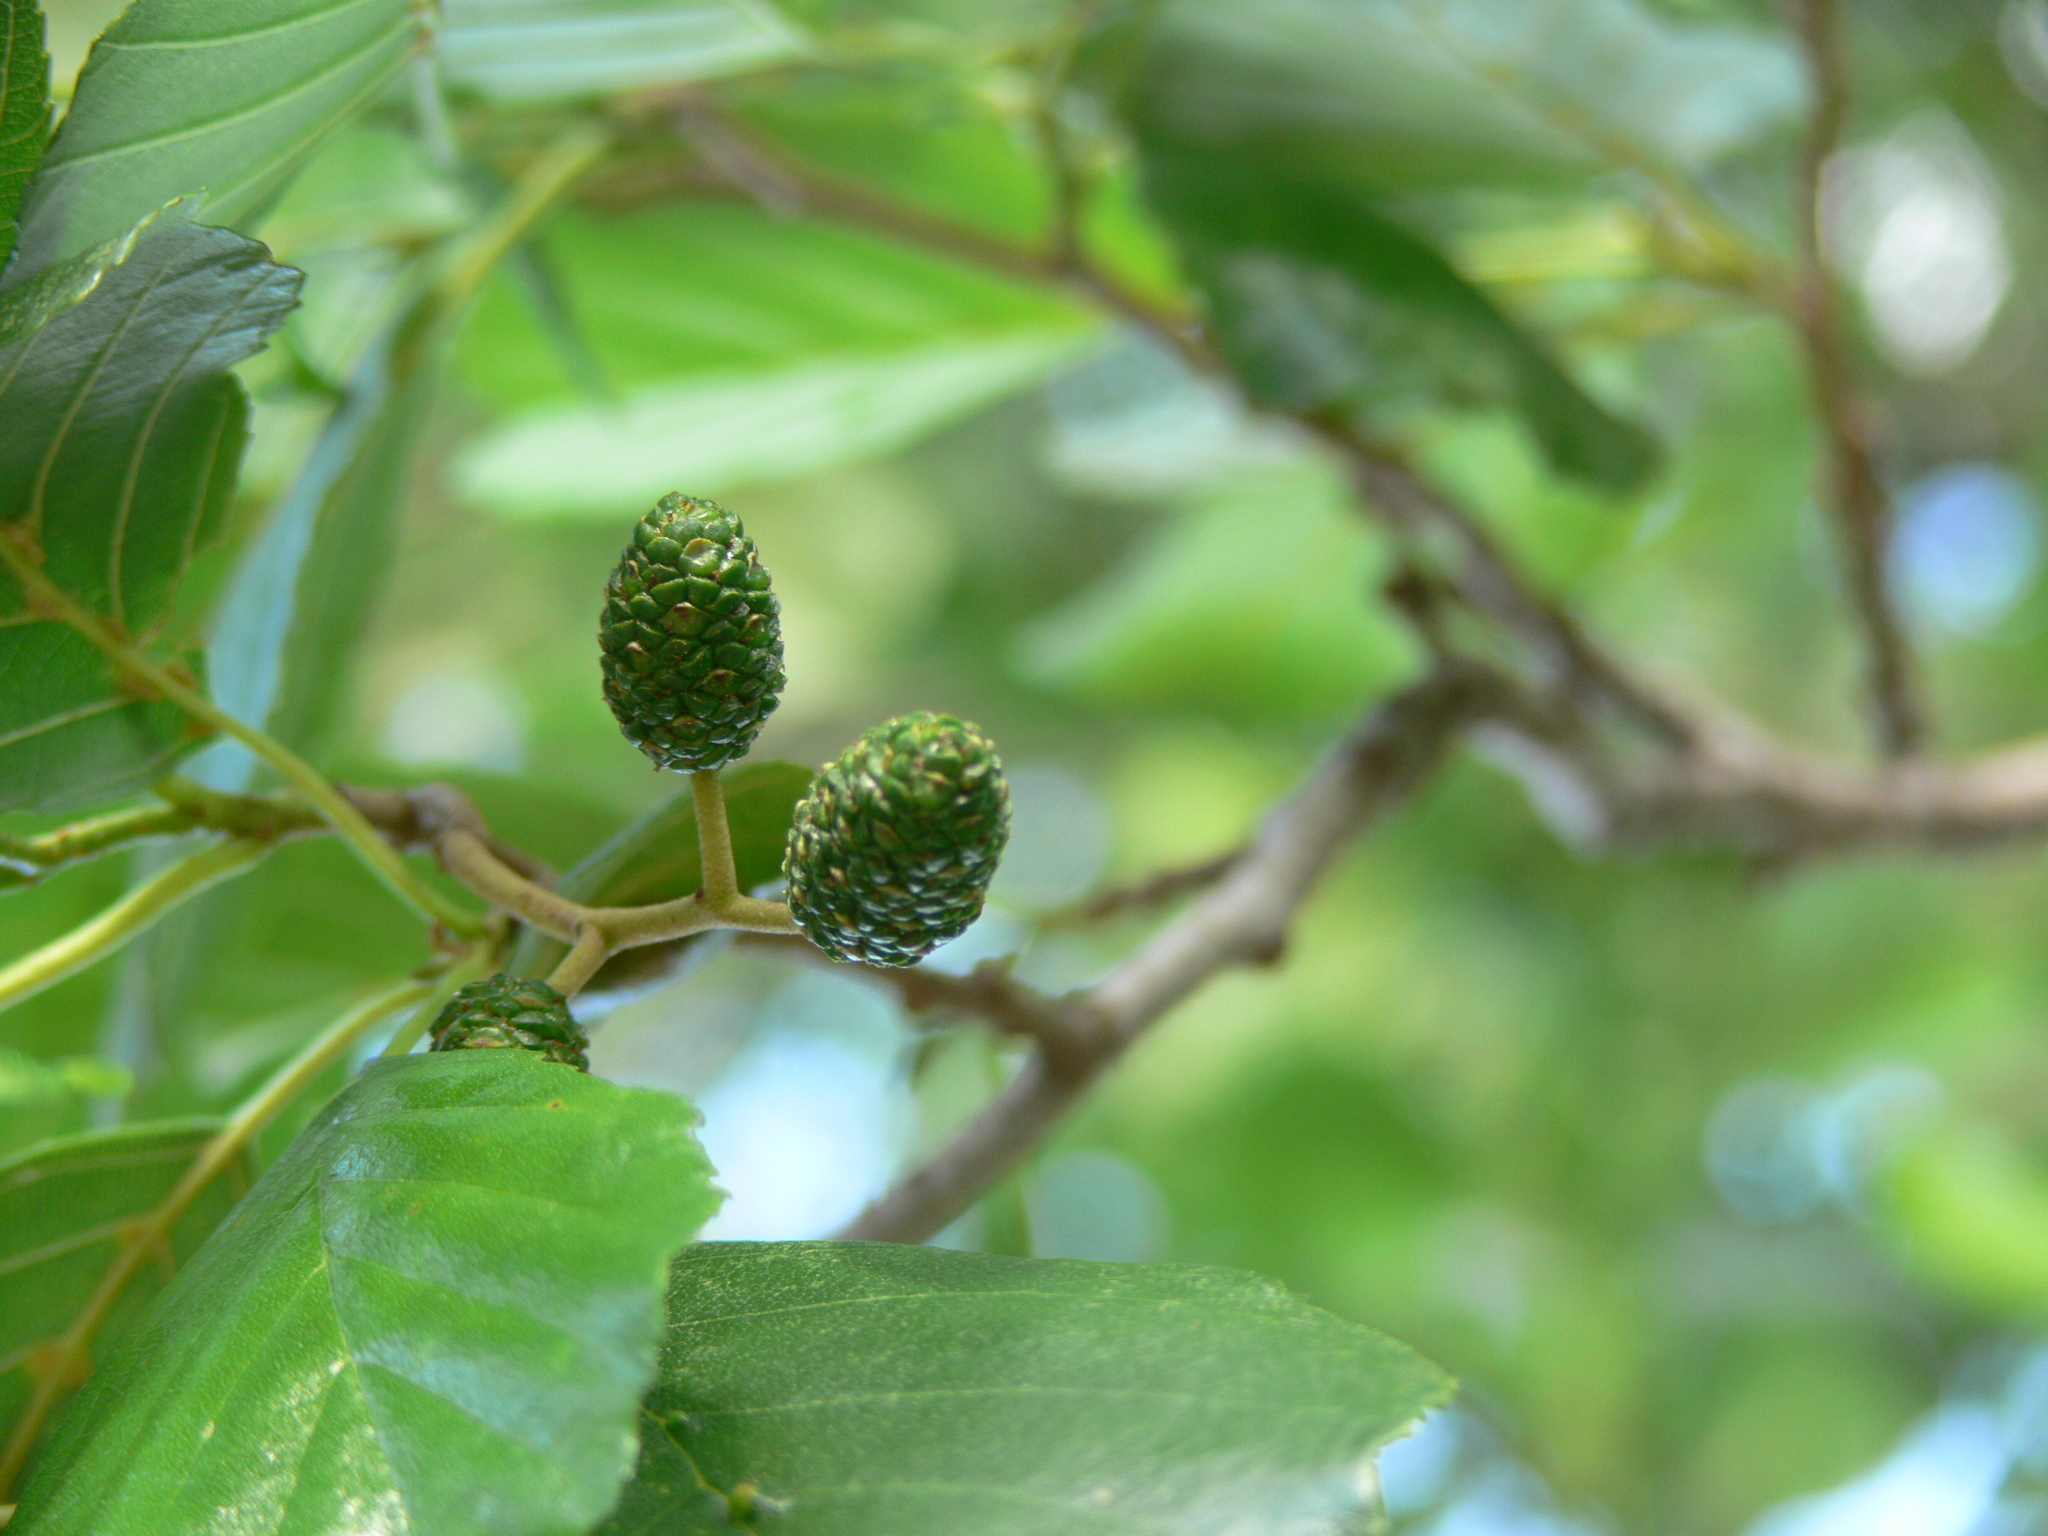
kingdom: Plantae
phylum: Tracheophyta
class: Magnoliopsida
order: Fagales
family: Betulaceae
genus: Alnus
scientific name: Alnus glutinosa
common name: Black alder
